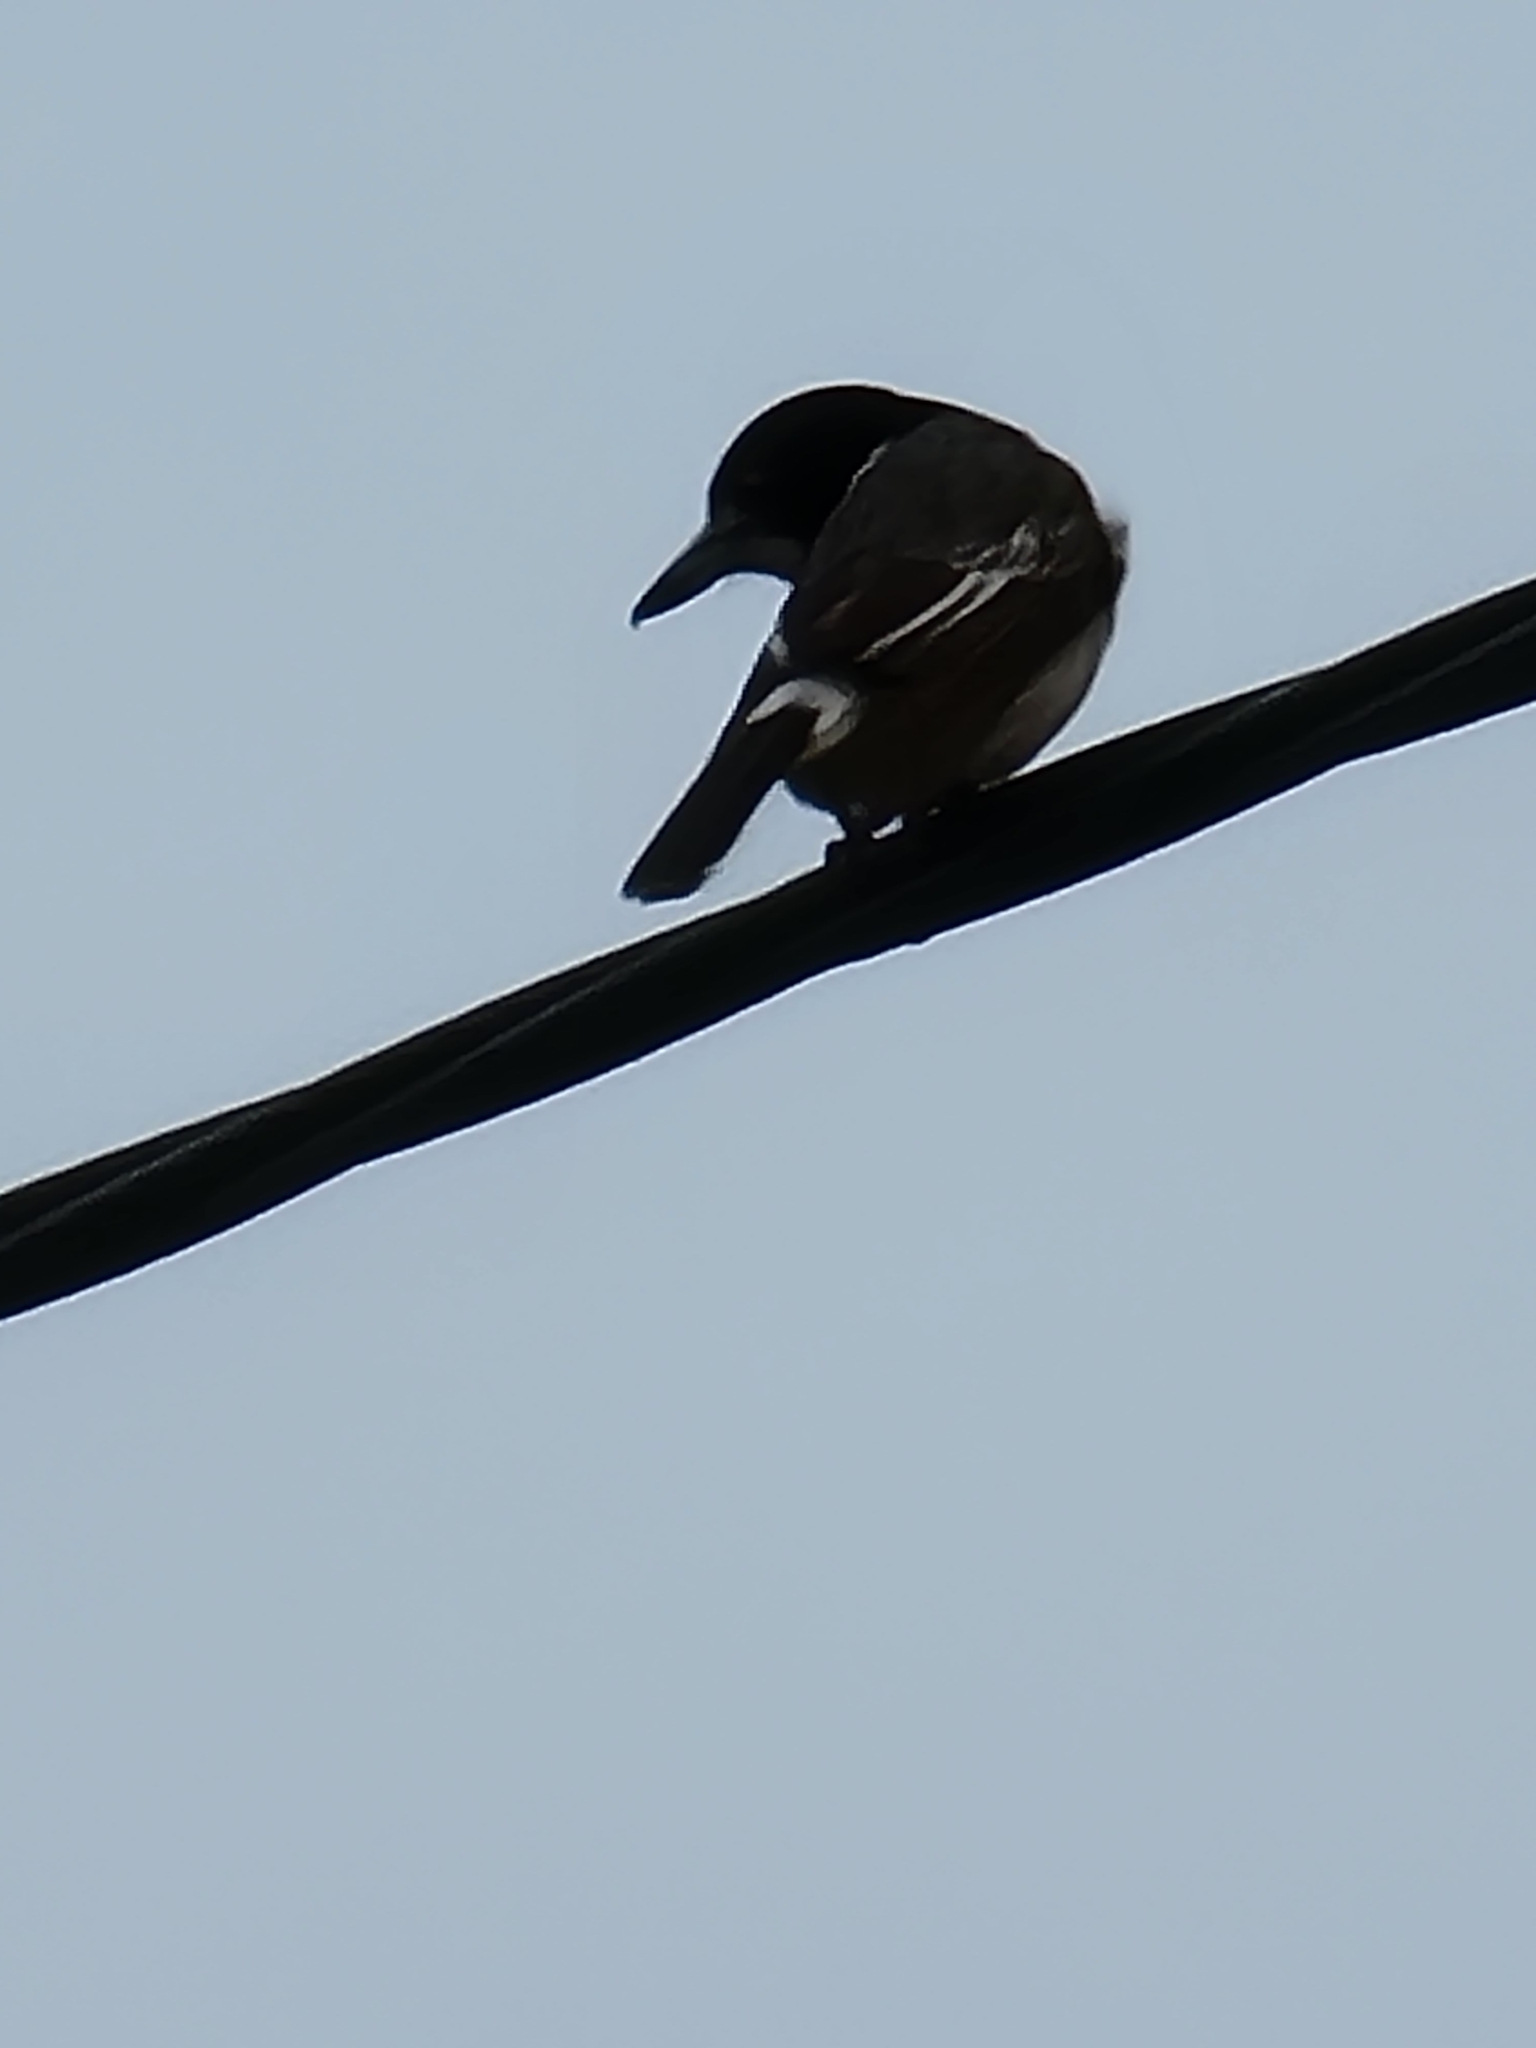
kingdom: Animalia
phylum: Chordata
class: Aves
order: Passeriformes
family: Cracticidae
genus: Cracticus
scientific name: Cracticus torquatus
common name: Grey butcherbird
